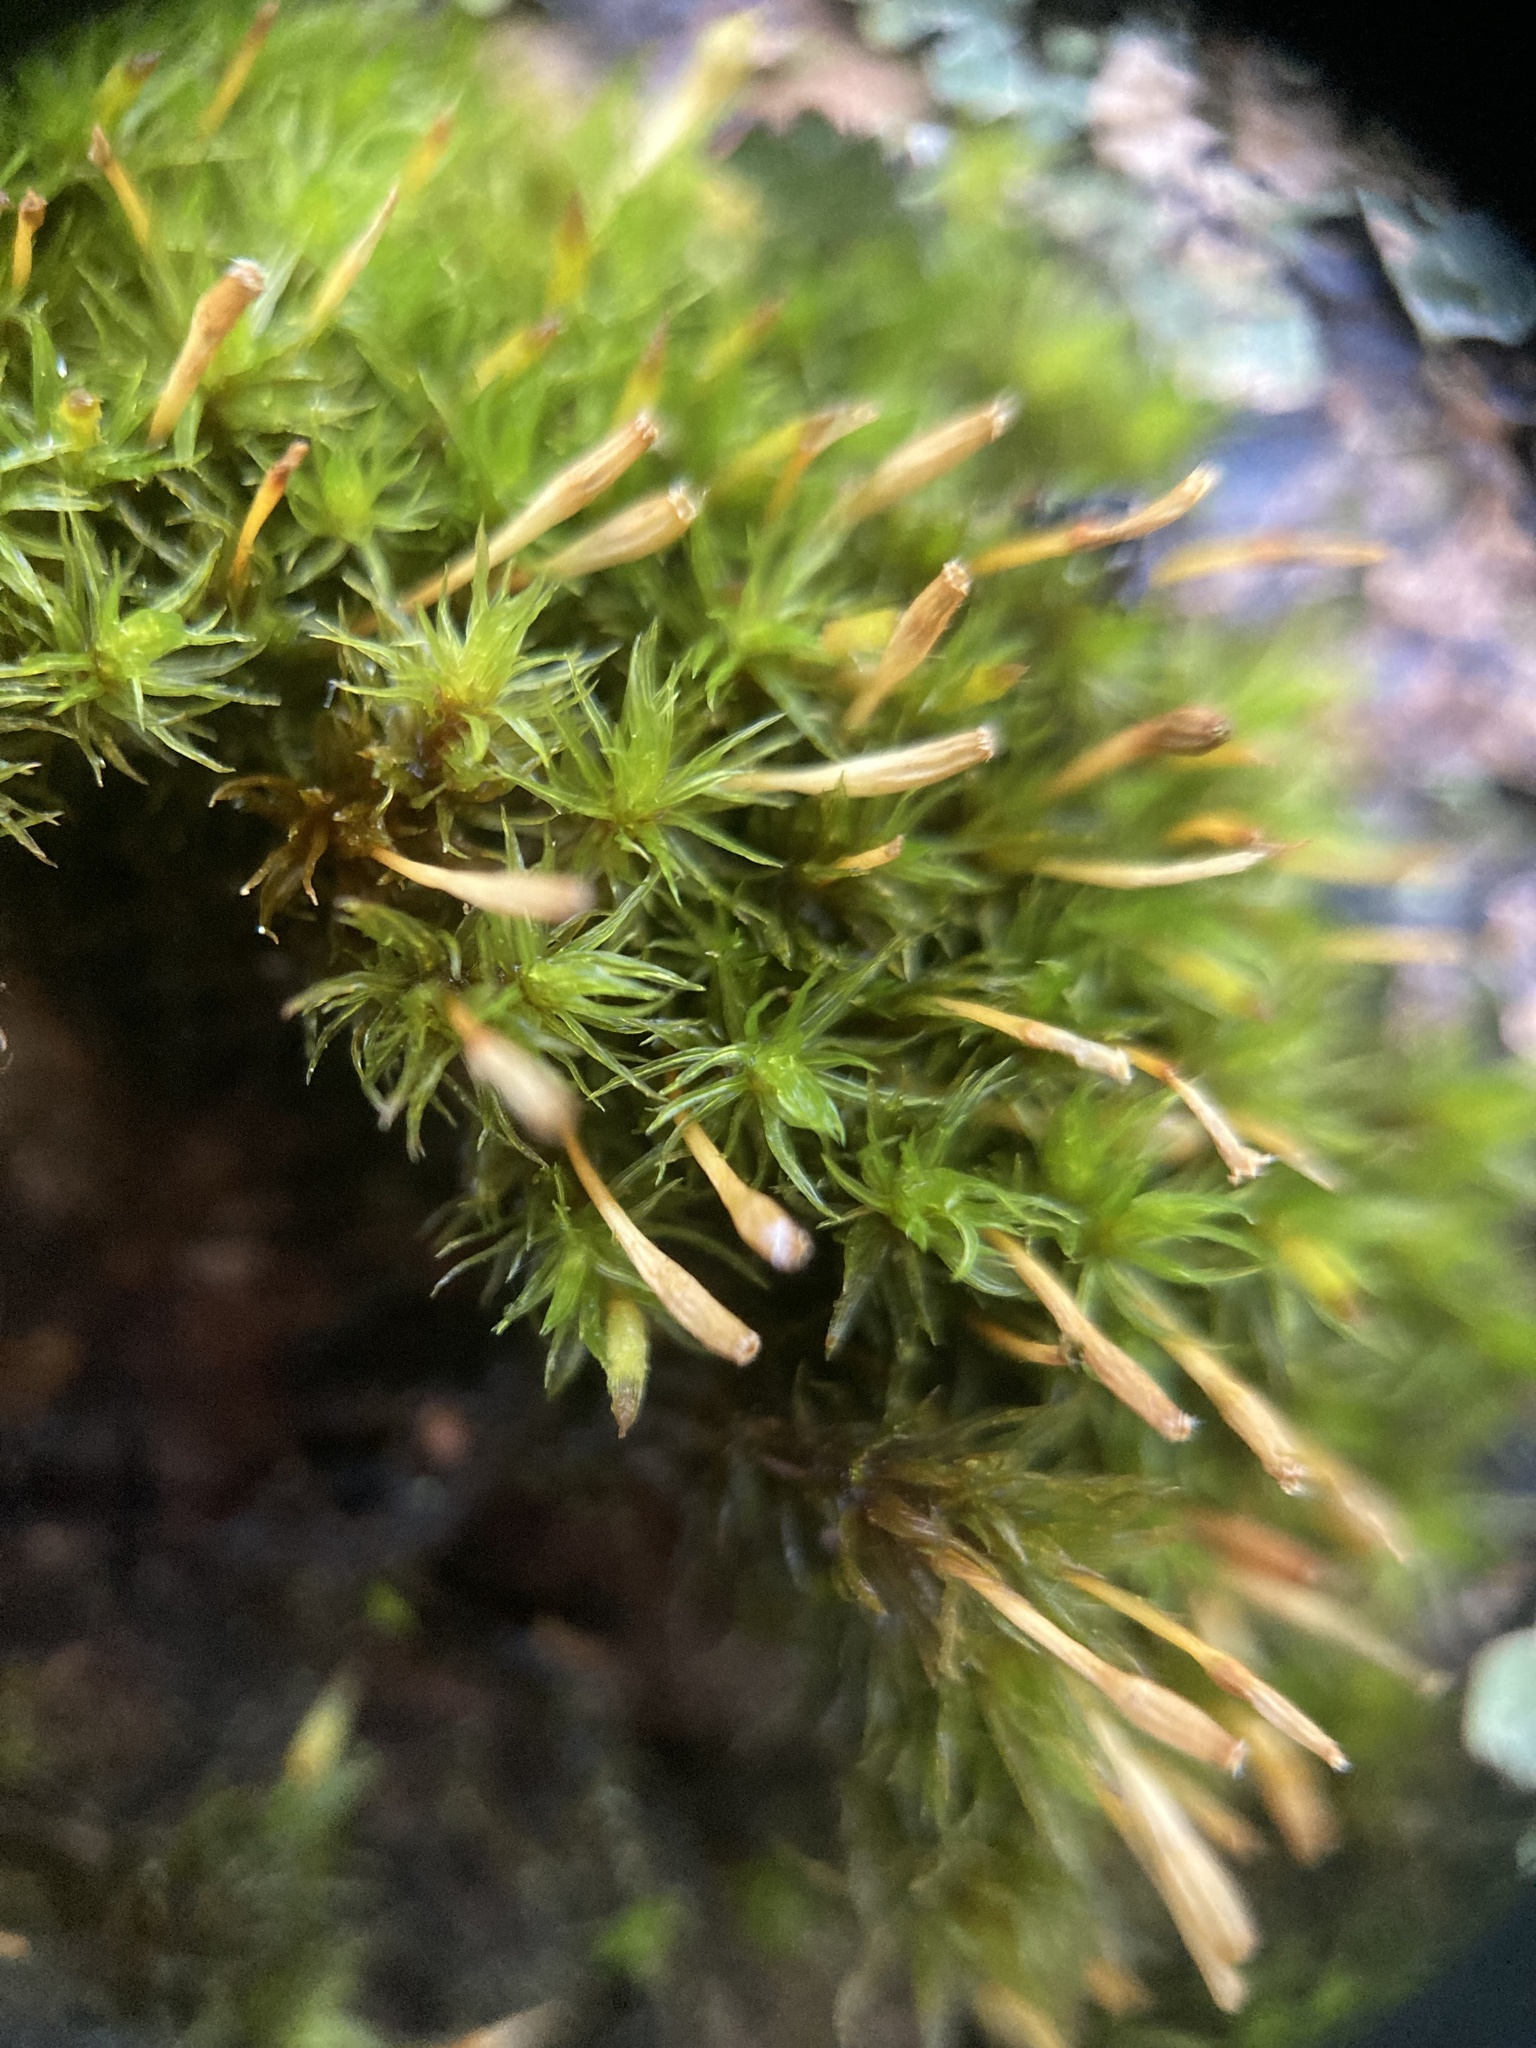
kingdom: Plantae
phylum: Bryophyta
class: Bryopsida
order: Orthotrichales
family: Orthotrichaceae
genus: Ulota
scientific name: Ulota bruchii
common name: Bruch's pincushion
